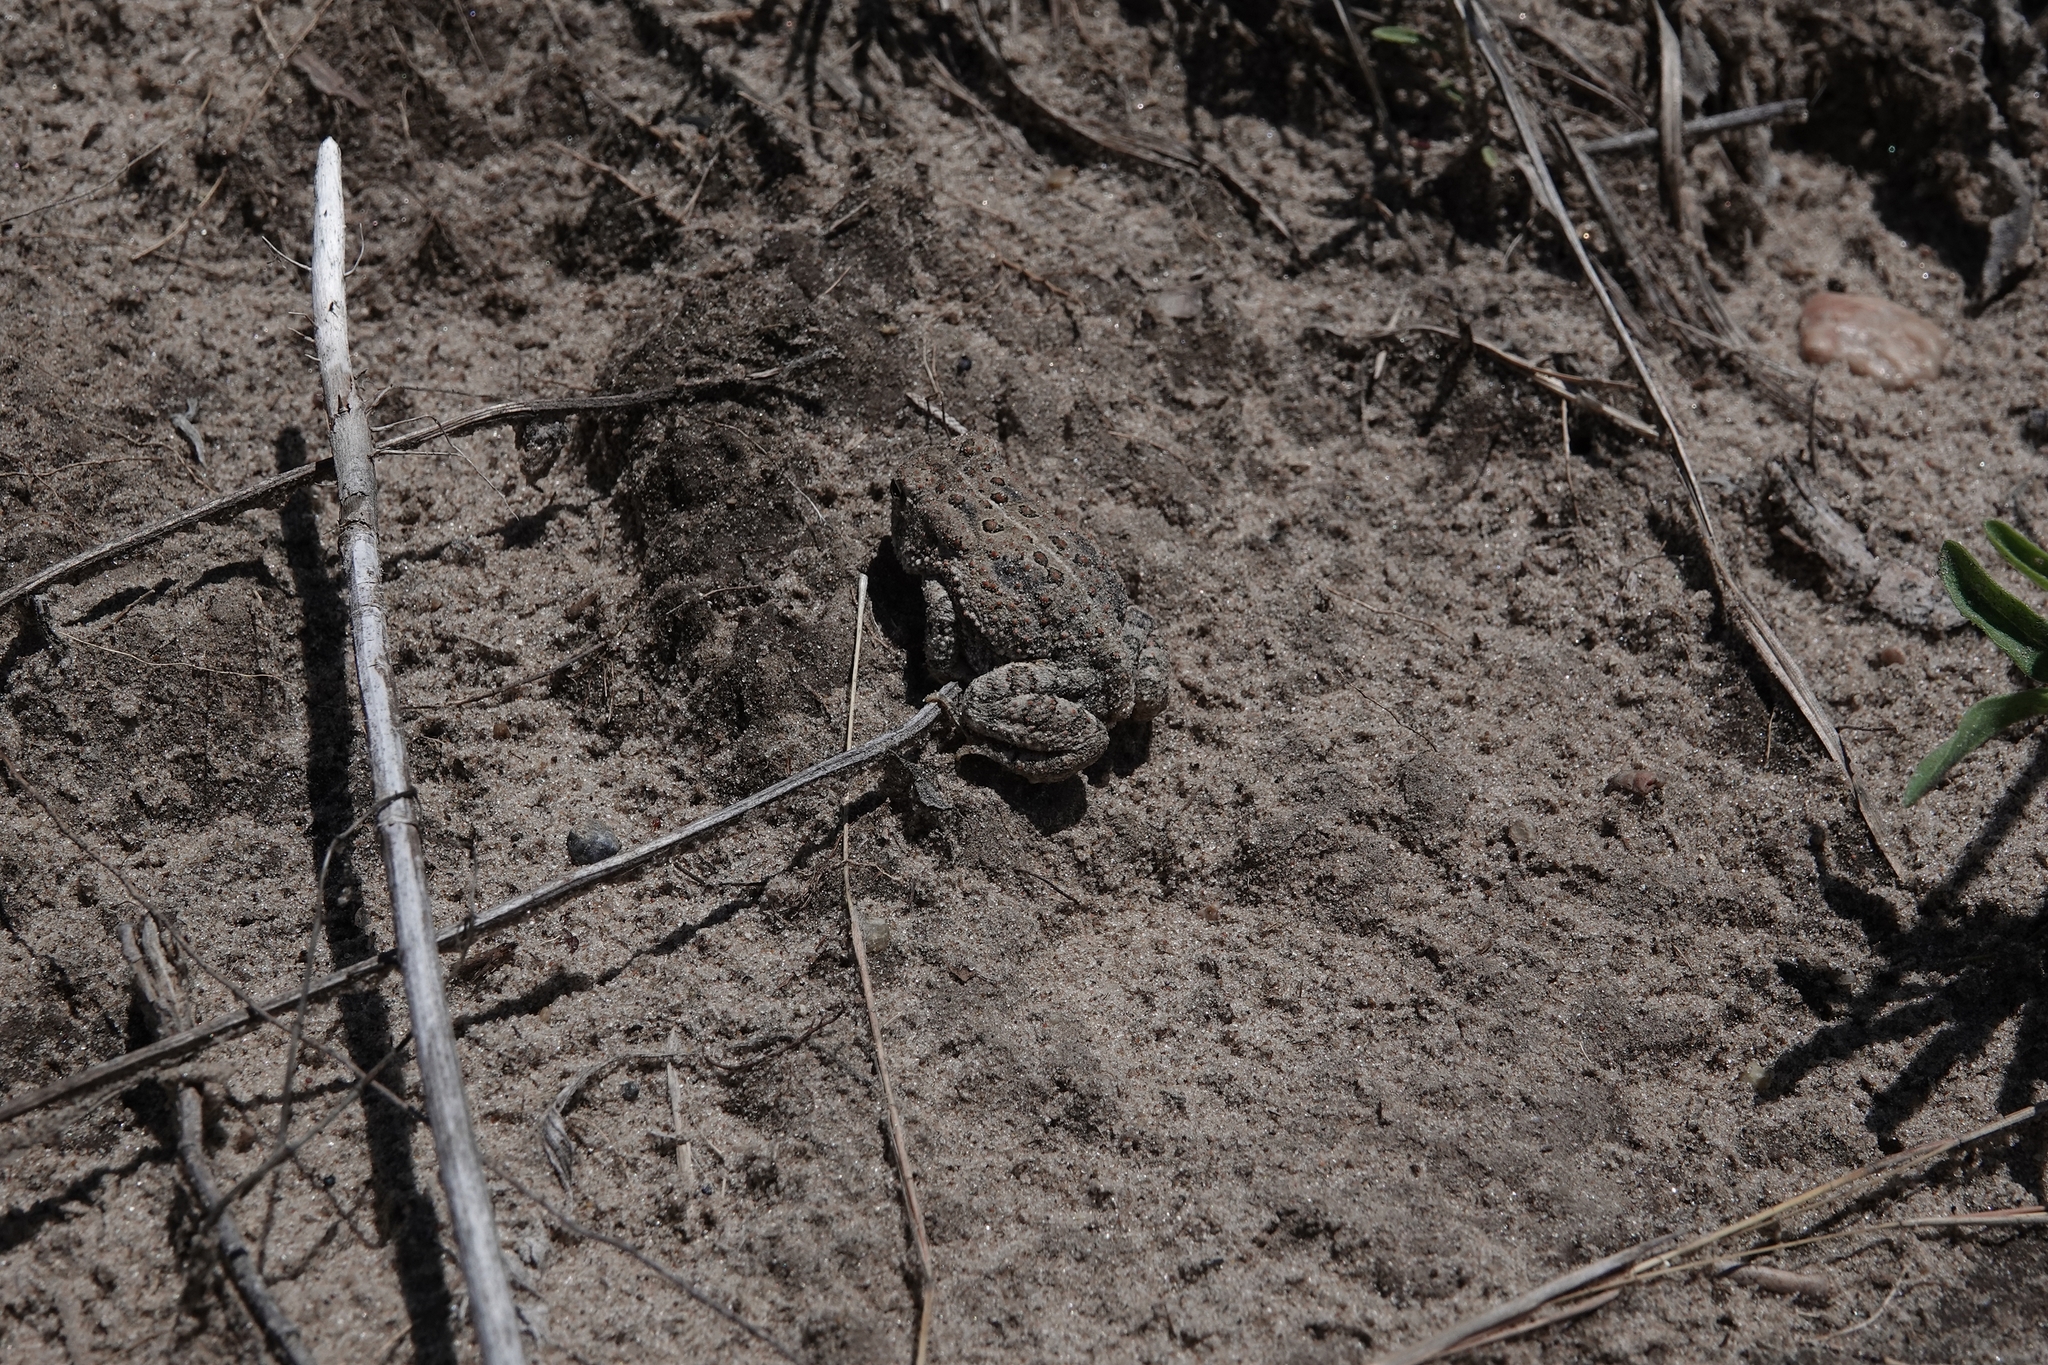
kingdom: Animalia
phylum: Chordata
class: Amphibia
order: Anura
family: Bufonidae
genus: Anaxyrus
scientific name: Anaxyrus woodhousii
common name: Woodhouse's toad
